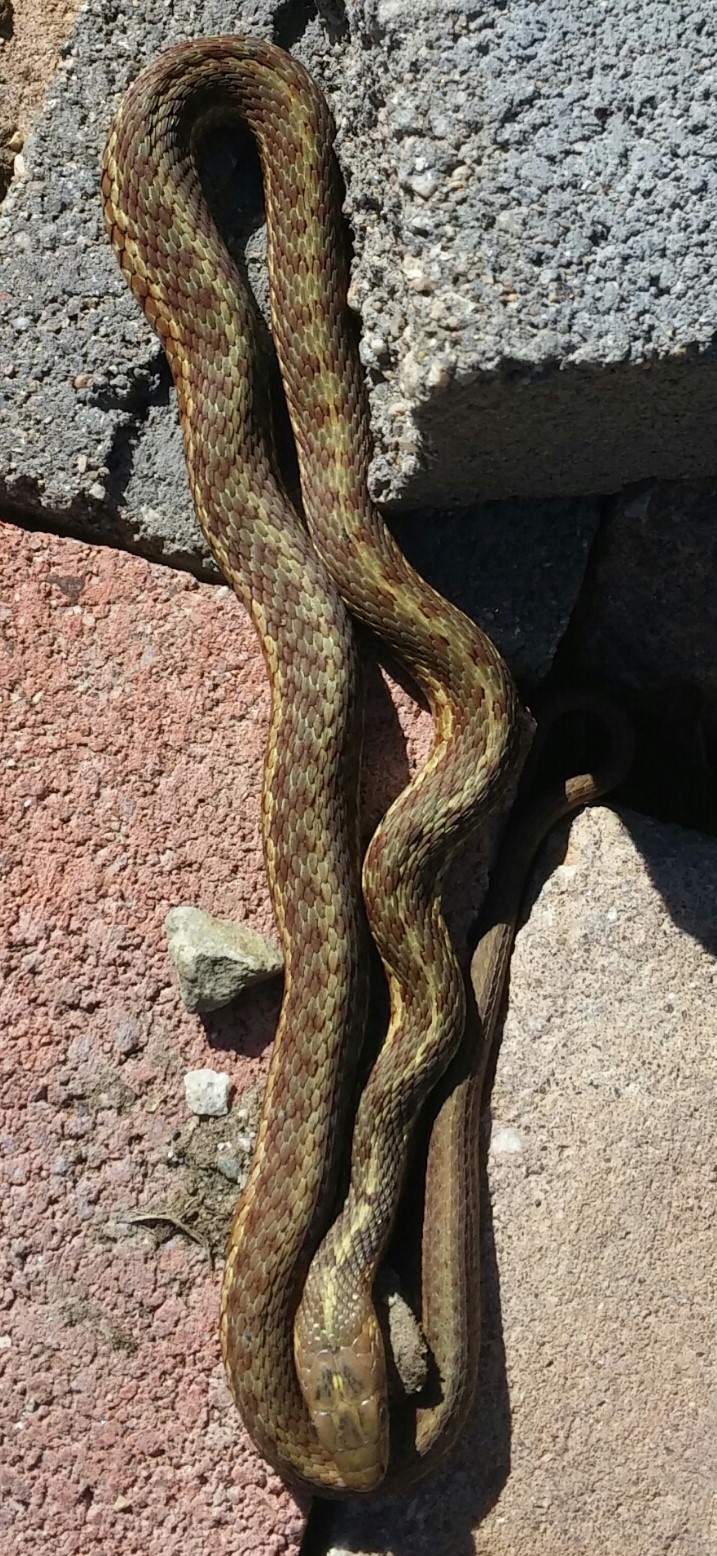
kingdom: Animalia
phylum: Chordata
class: Squamata
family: Colubridae
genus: Thamnophis
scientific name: Thamnophis sirtalis
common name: Common garter snake
